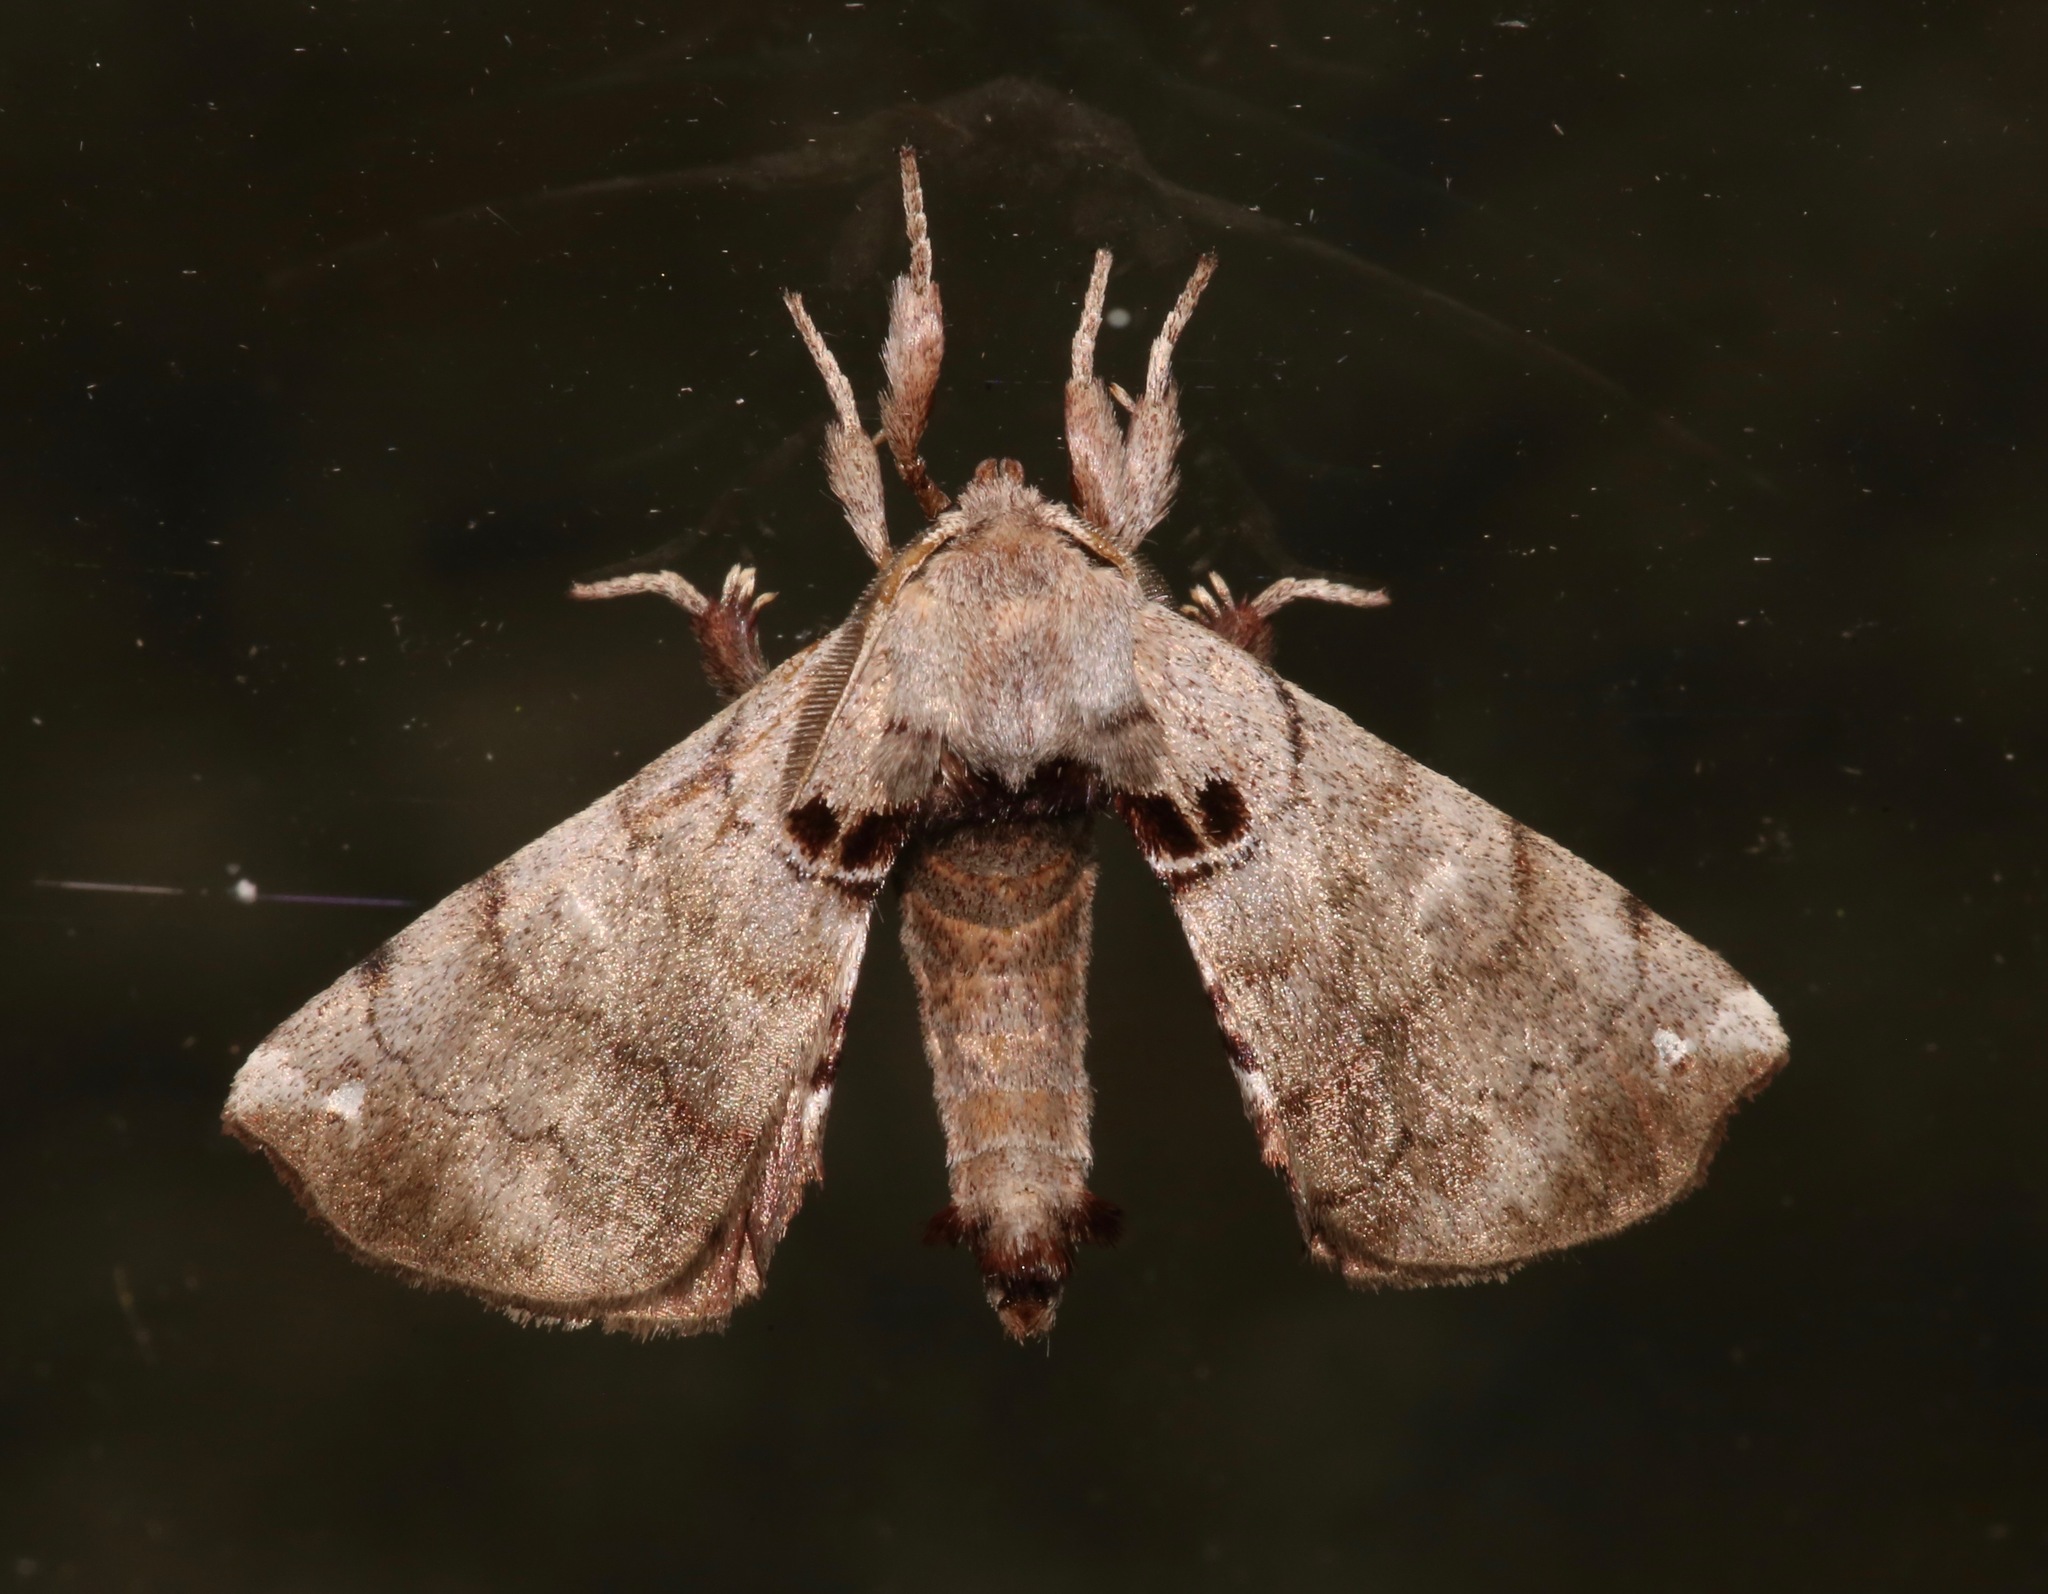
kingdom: Animalia
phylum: Arthropoda
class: Insecta
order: Lepidoptera
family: Apatelodidae
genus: Hygrochroa
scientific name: Hygrochroa Apatelodes torrefacta
